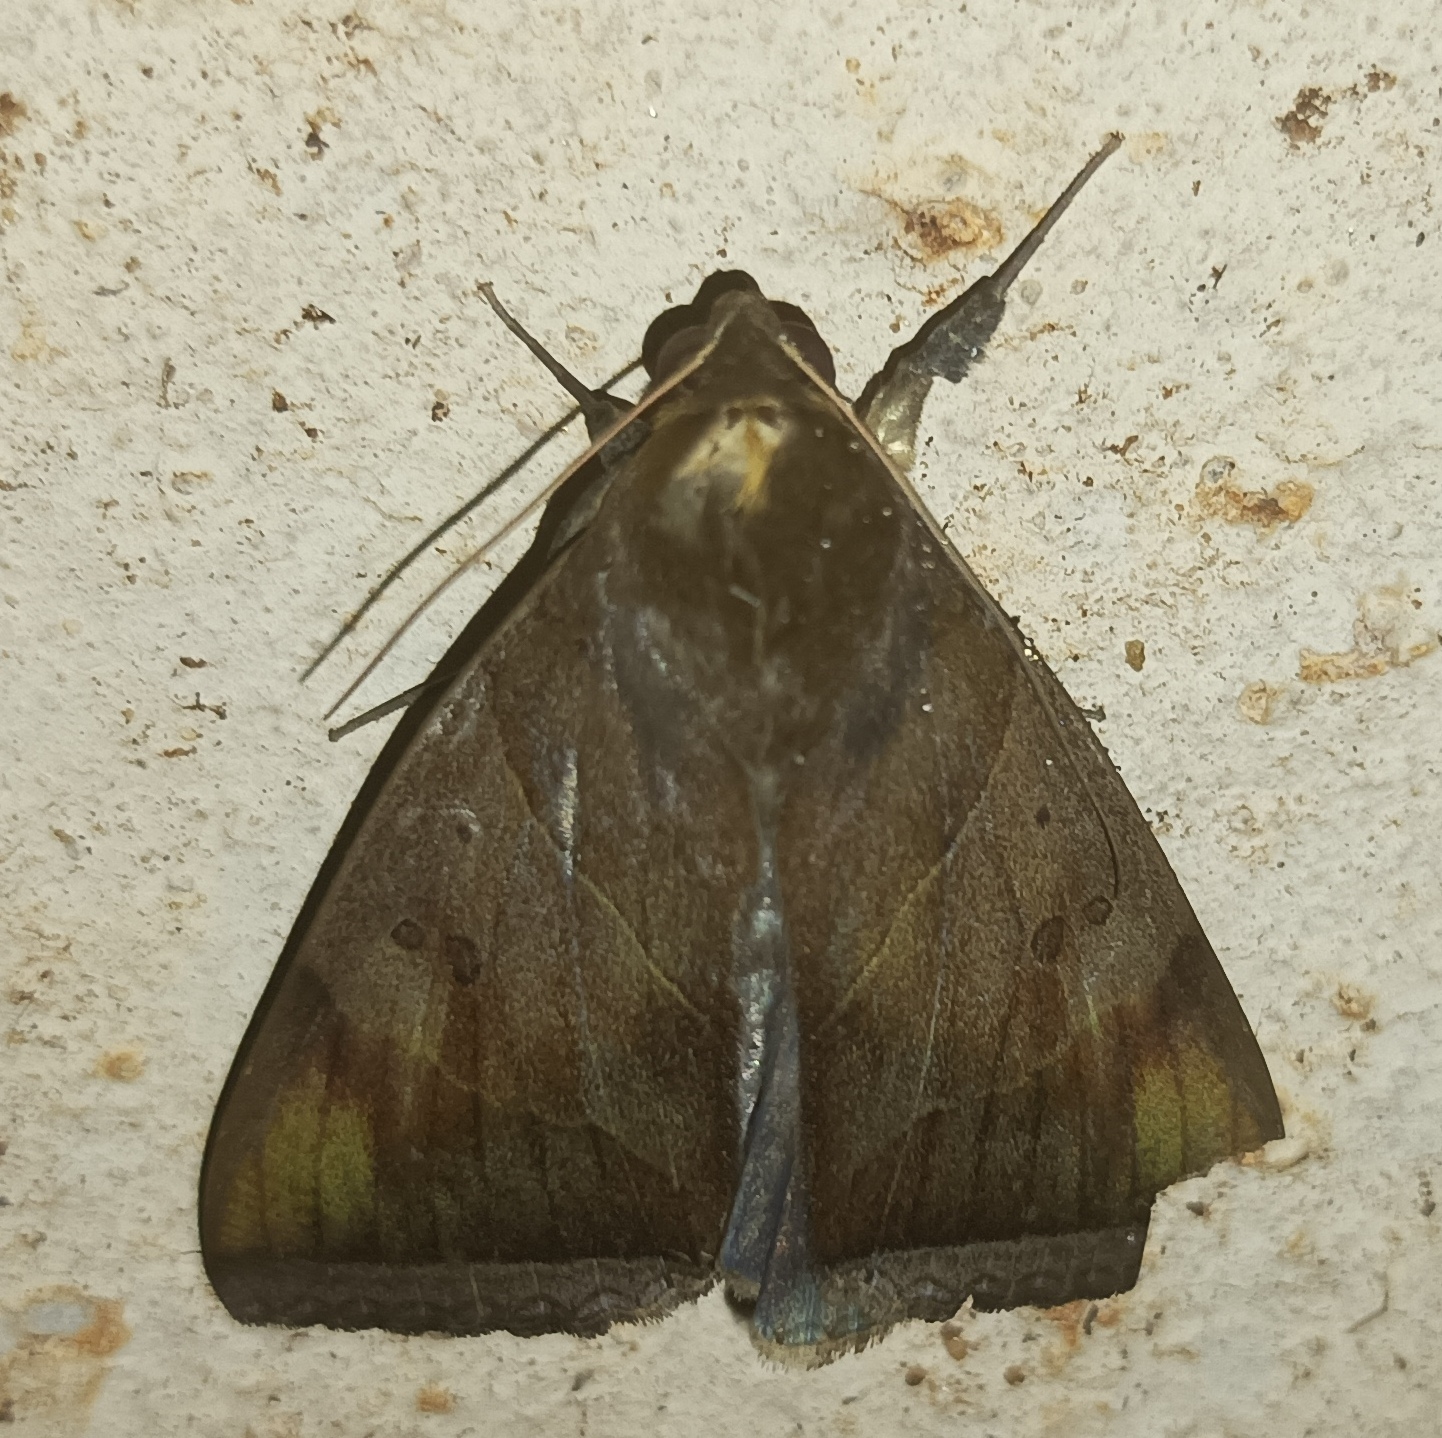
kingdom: Animalia
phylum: Arthropoda
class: Insecta
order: Lepidoptera
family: Erebidae
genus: Artena
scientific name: Artena dotata
